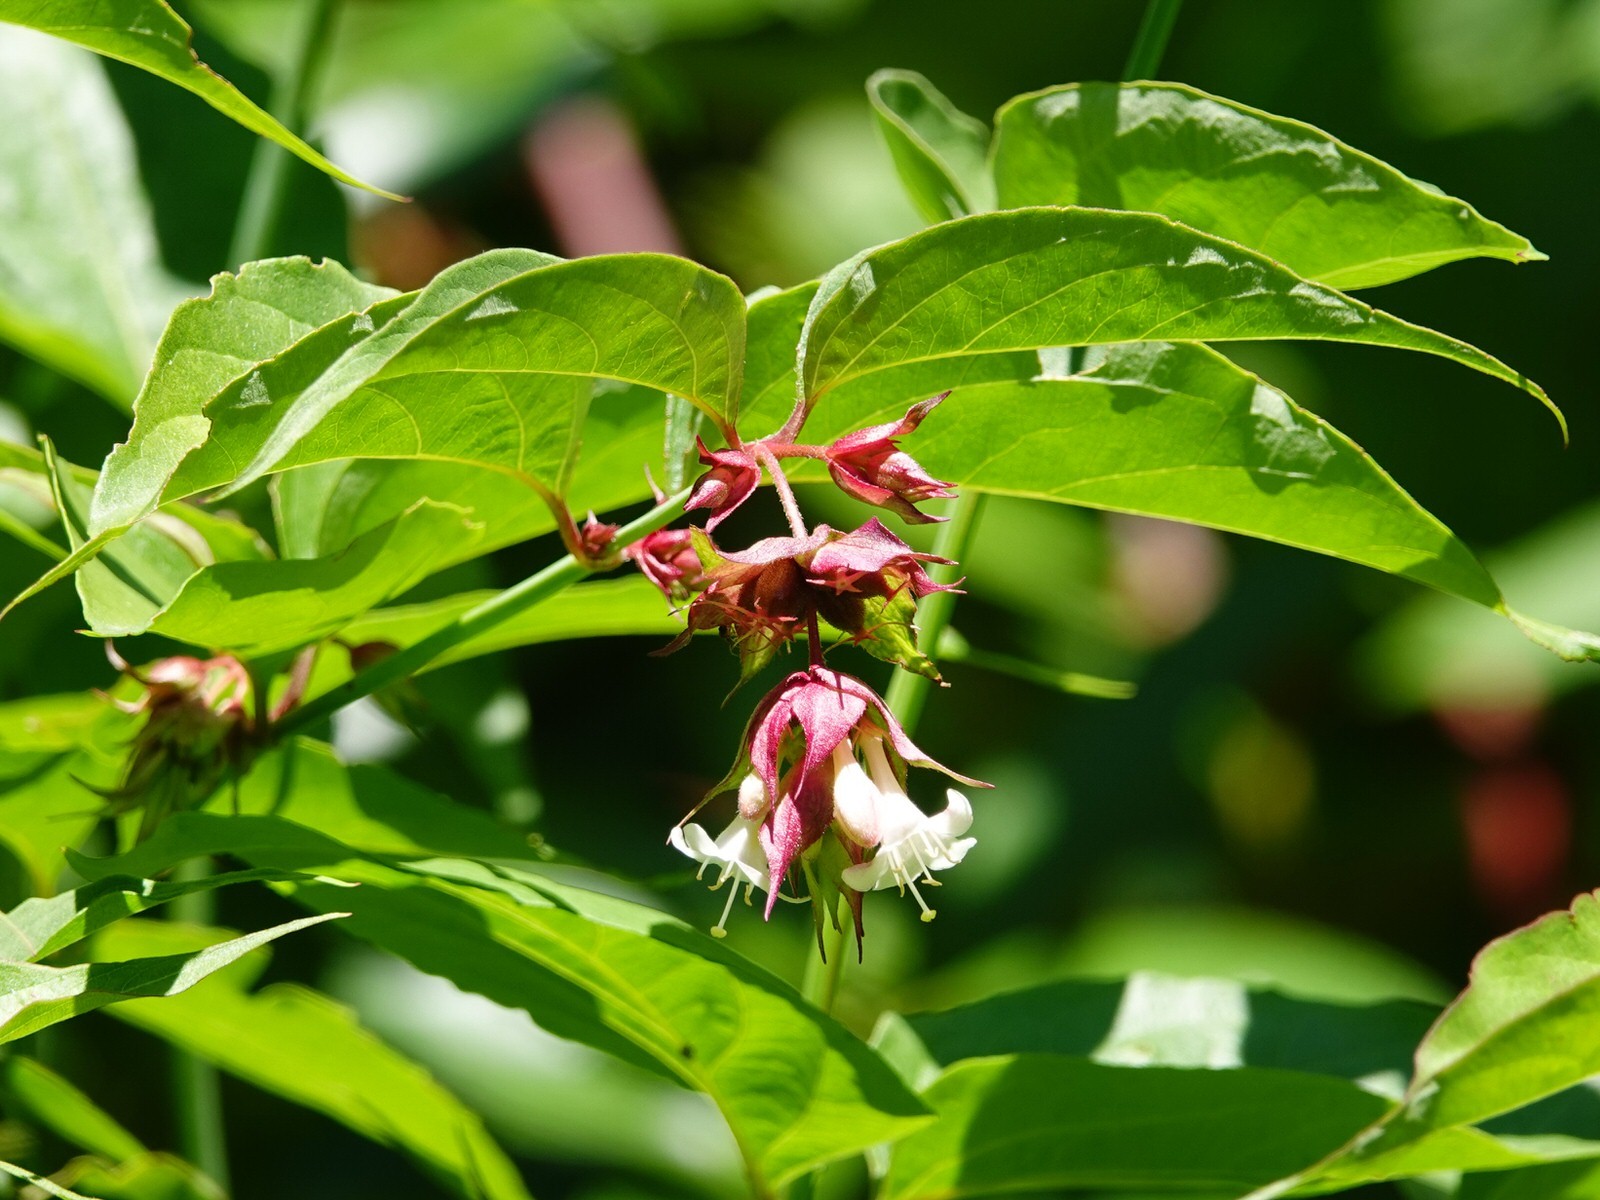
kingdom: Plantae
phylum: Tracheophyta
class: Magnoliopsida
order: Dipsacales
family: Caprifoliaceae
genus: Leycesteria
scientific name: Leycesteria formosa
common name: Himalayan honeysuckle
